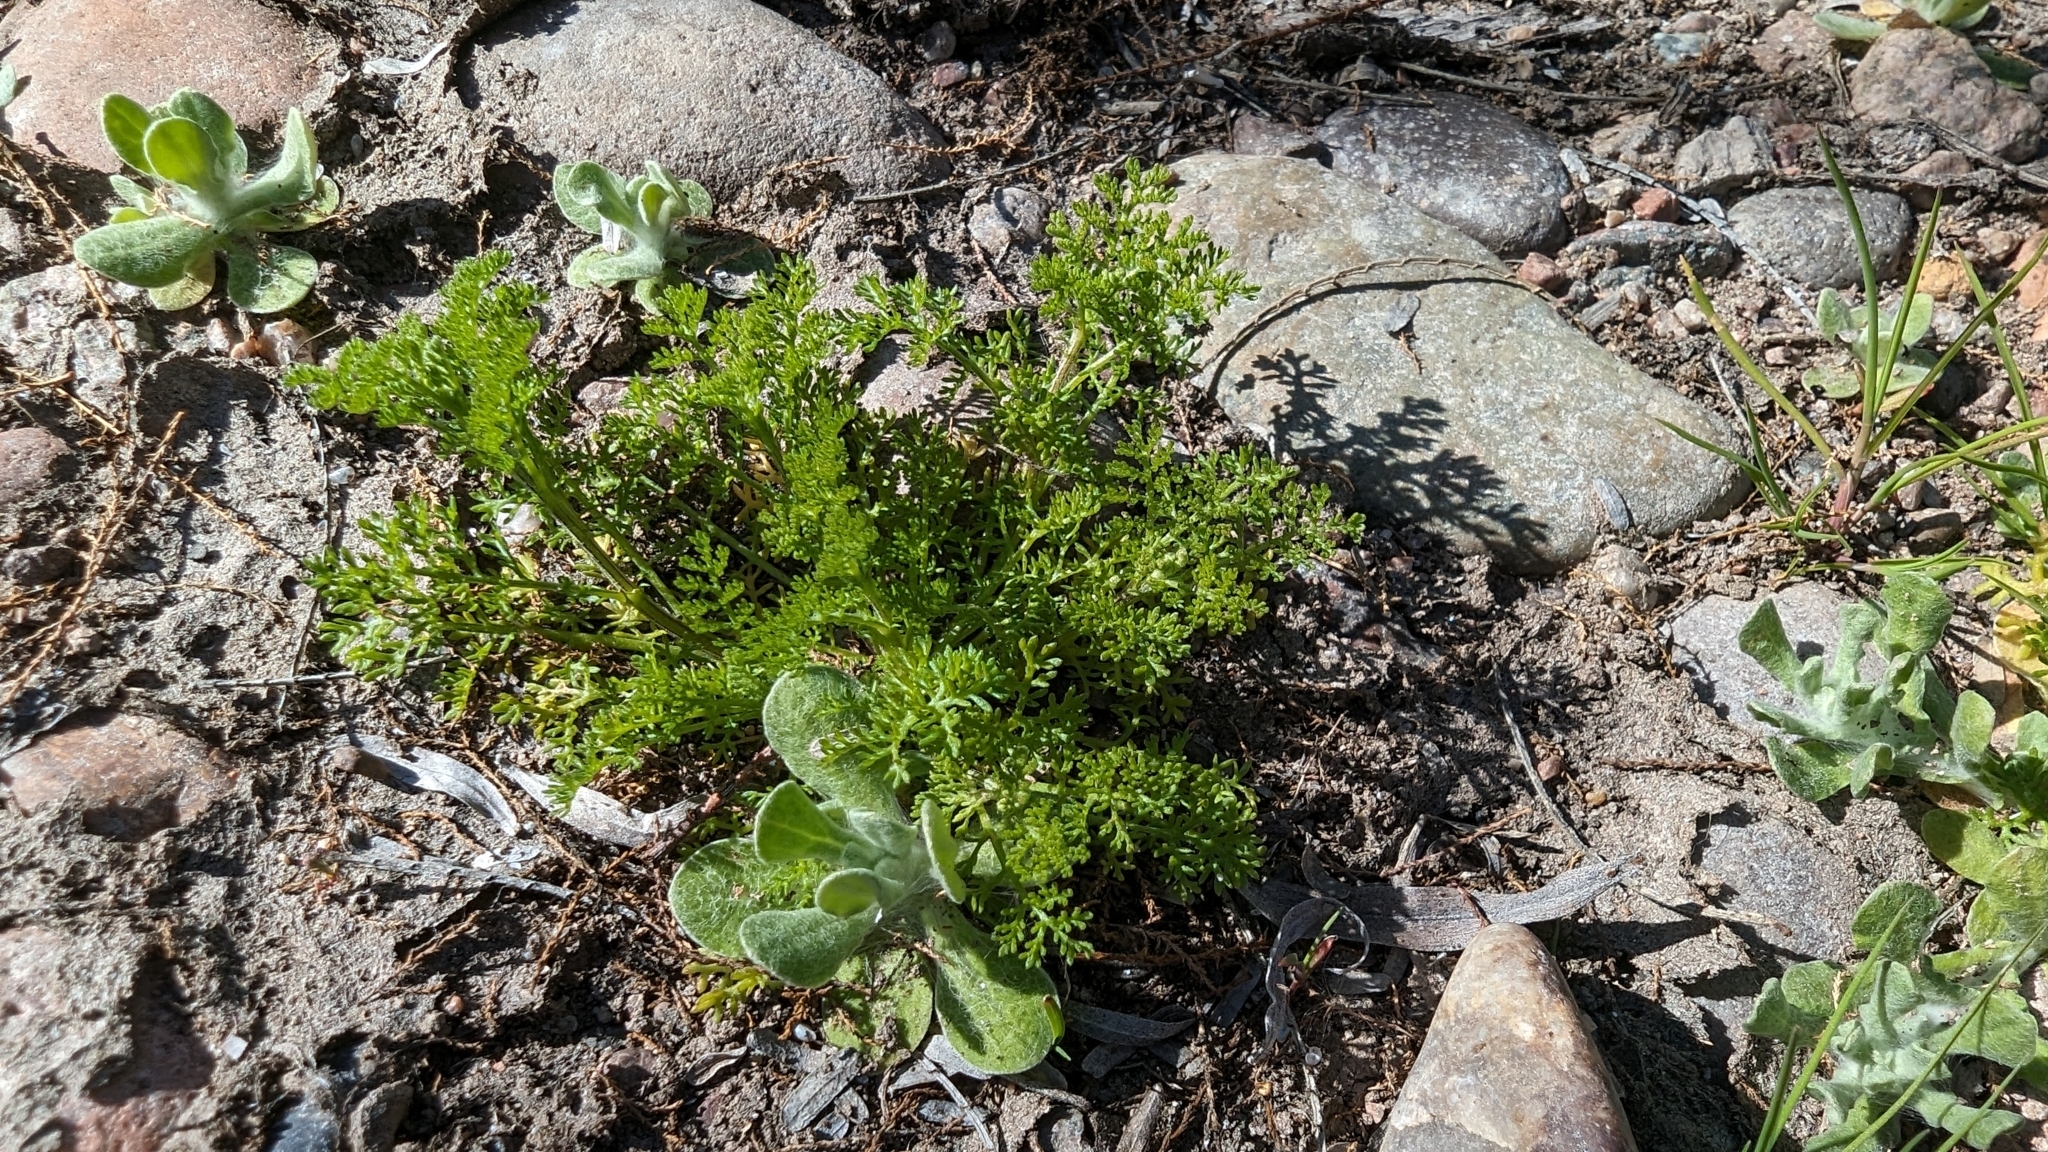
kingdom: Plantae
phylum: Tracheophyta
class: Magnoliopsida
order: Asterales
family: Asteraceae
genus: Oncosiphon
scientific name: Oncosiphon pilulifer
